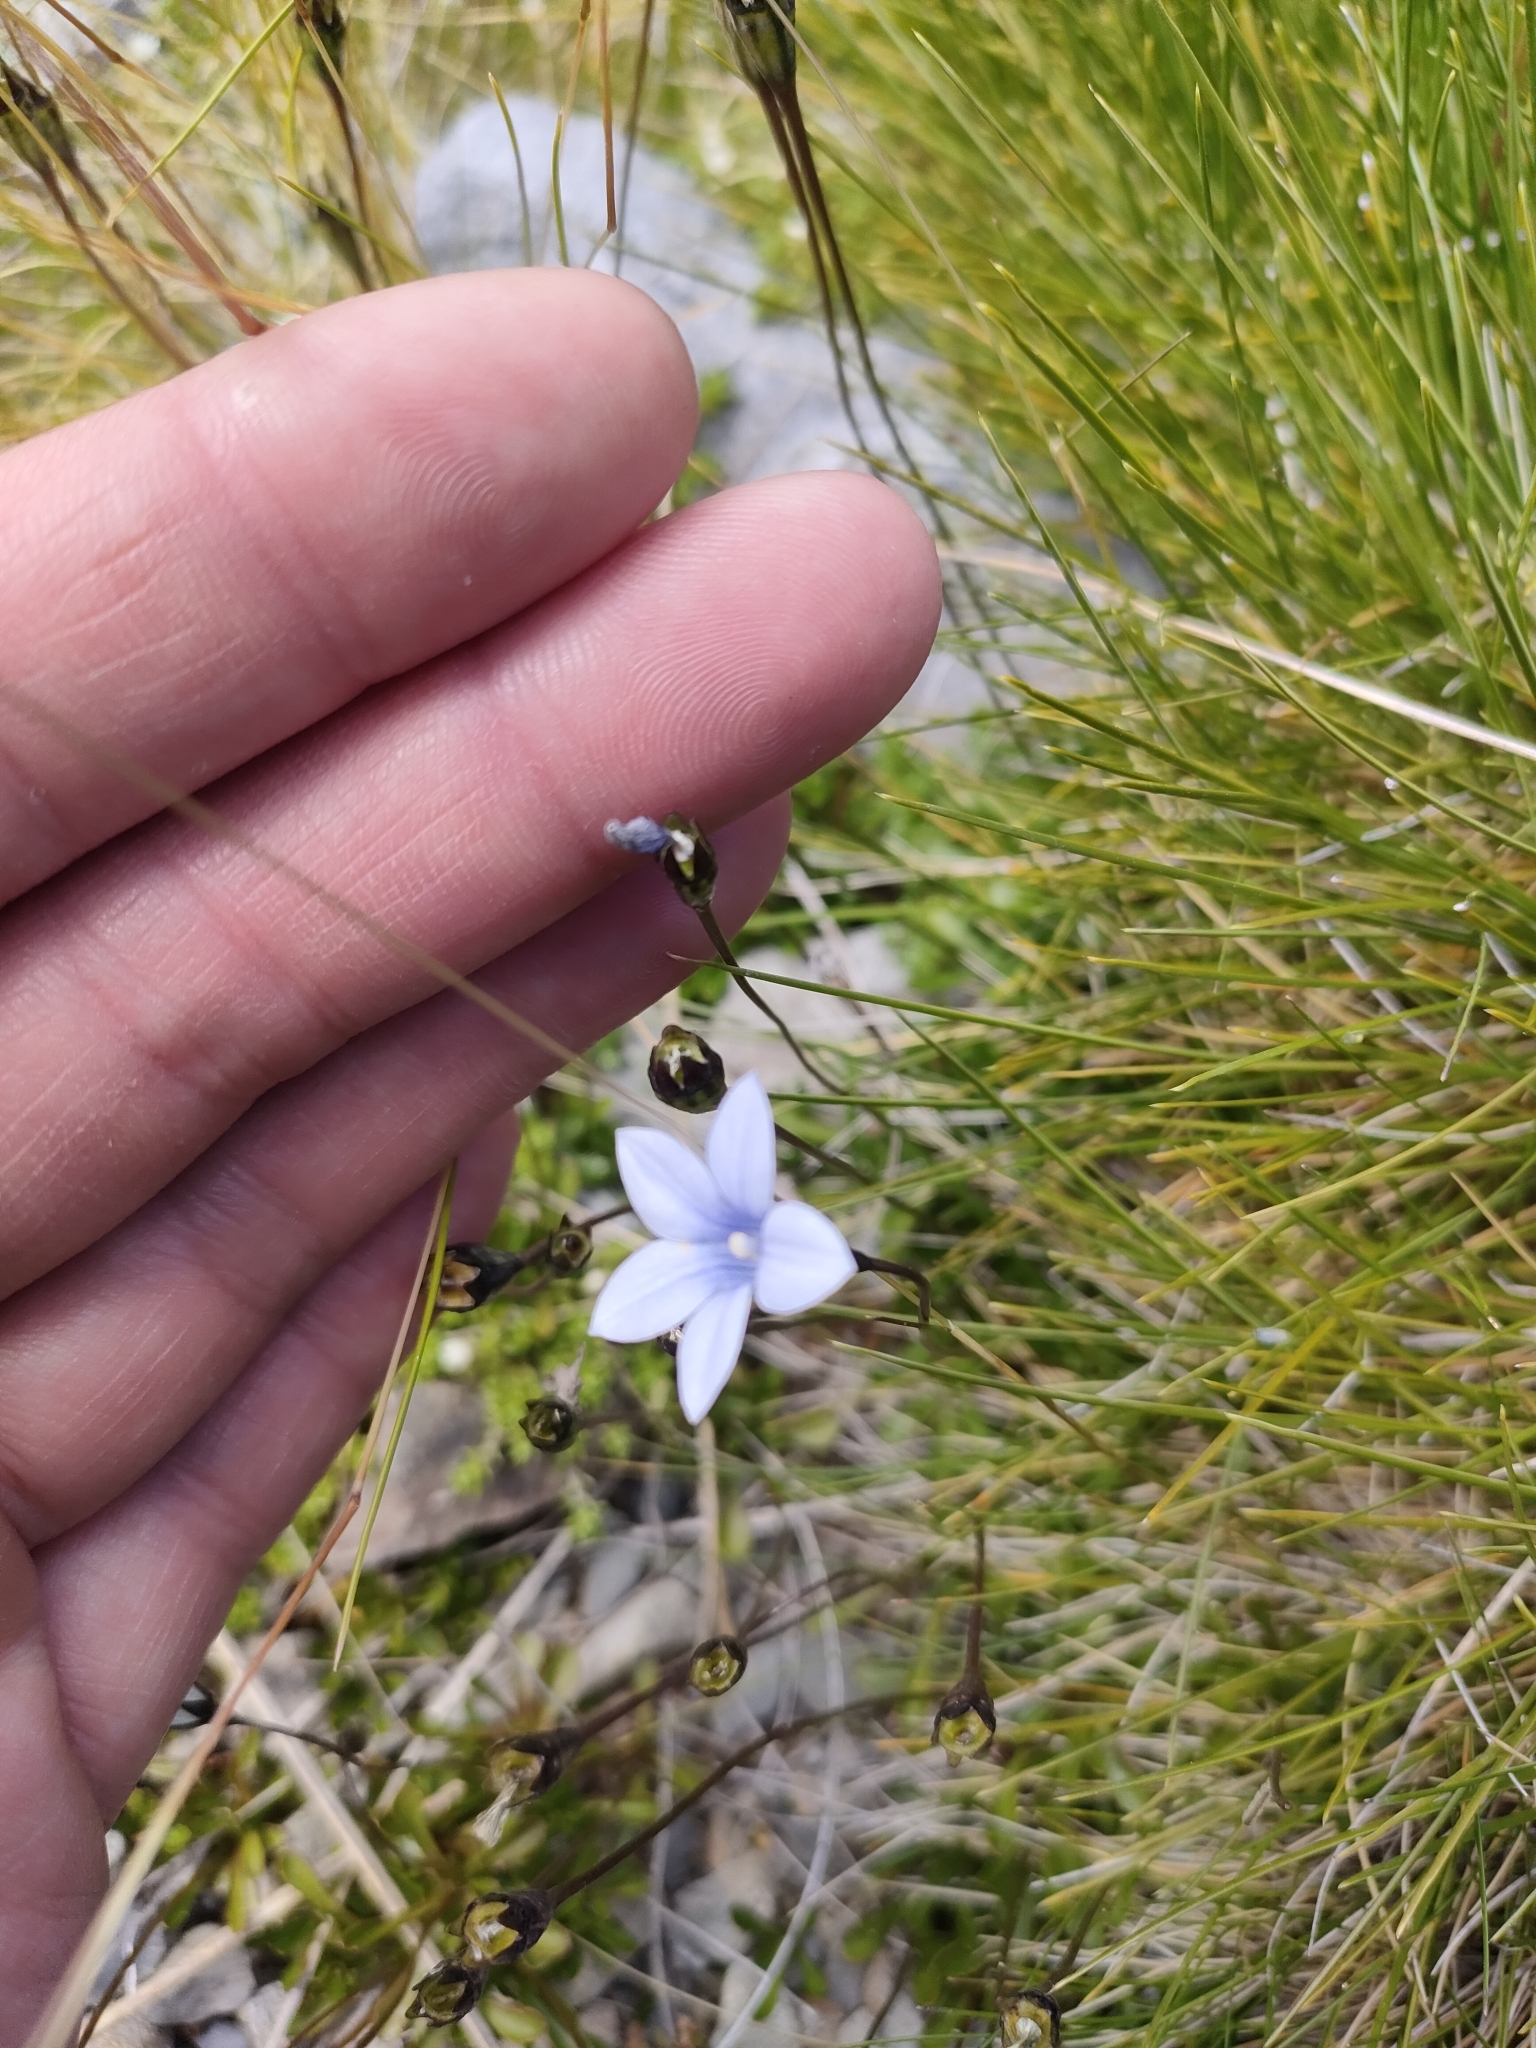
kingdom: Plantae
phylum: Tracheophyta
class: Magnoliopsida
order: Asterales
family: Campanulaceae
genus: Wahlenbergia
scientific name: Wahlenbergia albomarginata
